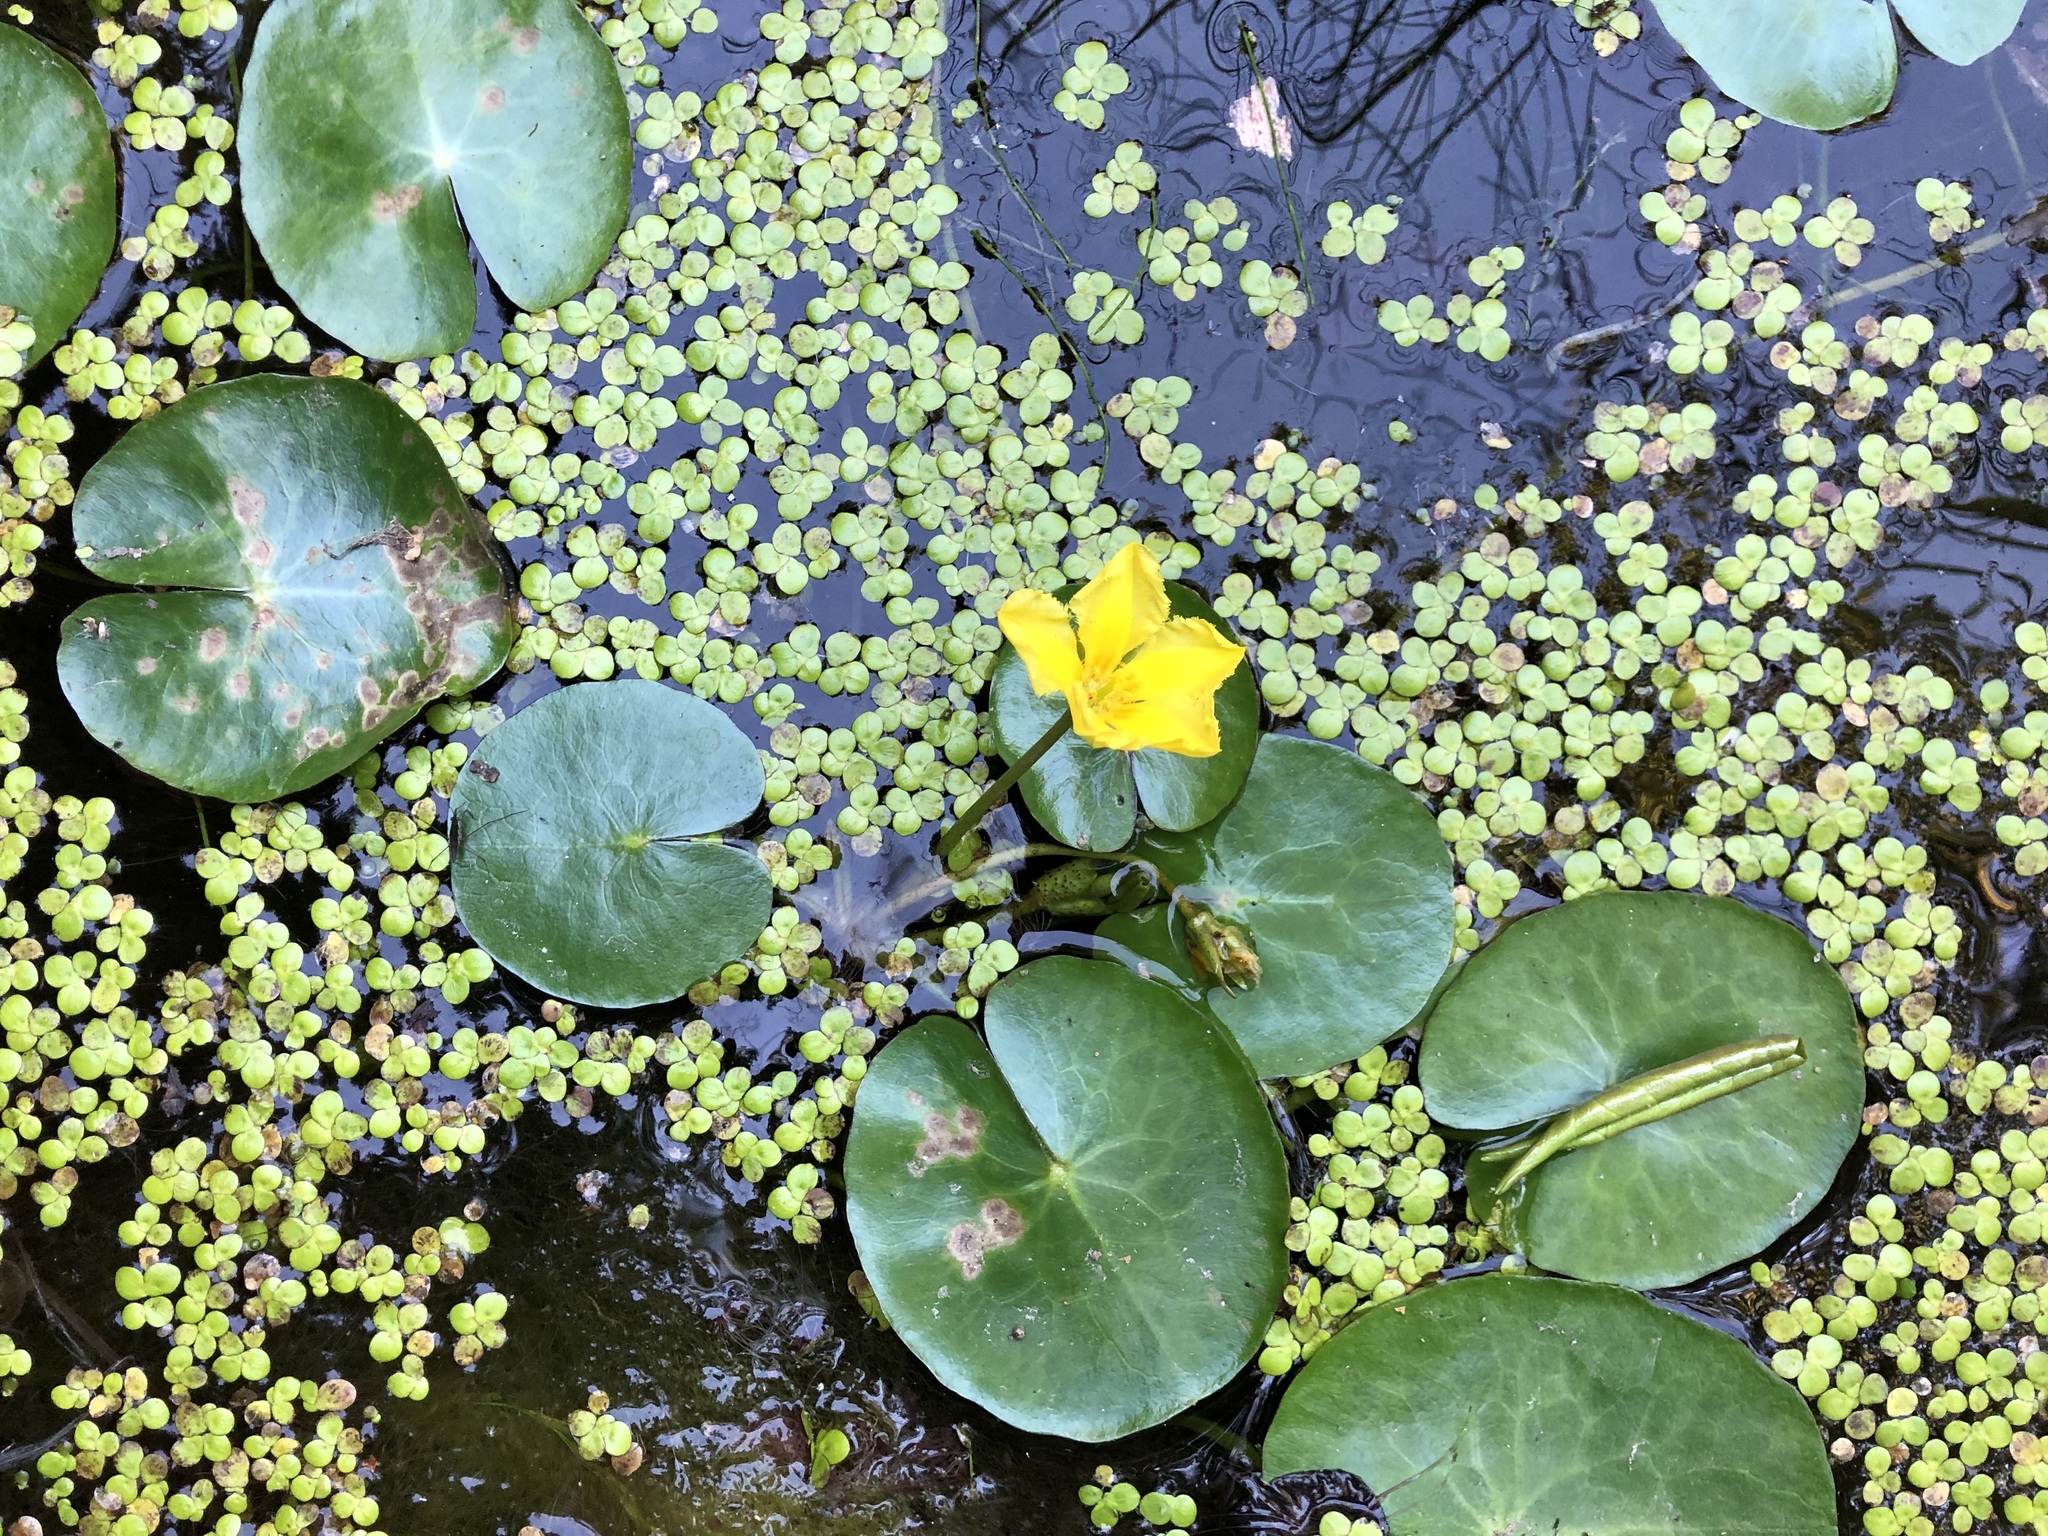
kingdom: Plantae
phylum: Tracheophyta
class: Magnoliopsida
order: Asterales
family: Menyanthaceae
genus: Nymphoides
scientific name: Nymphoides peltata
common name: Fringed water-lily
